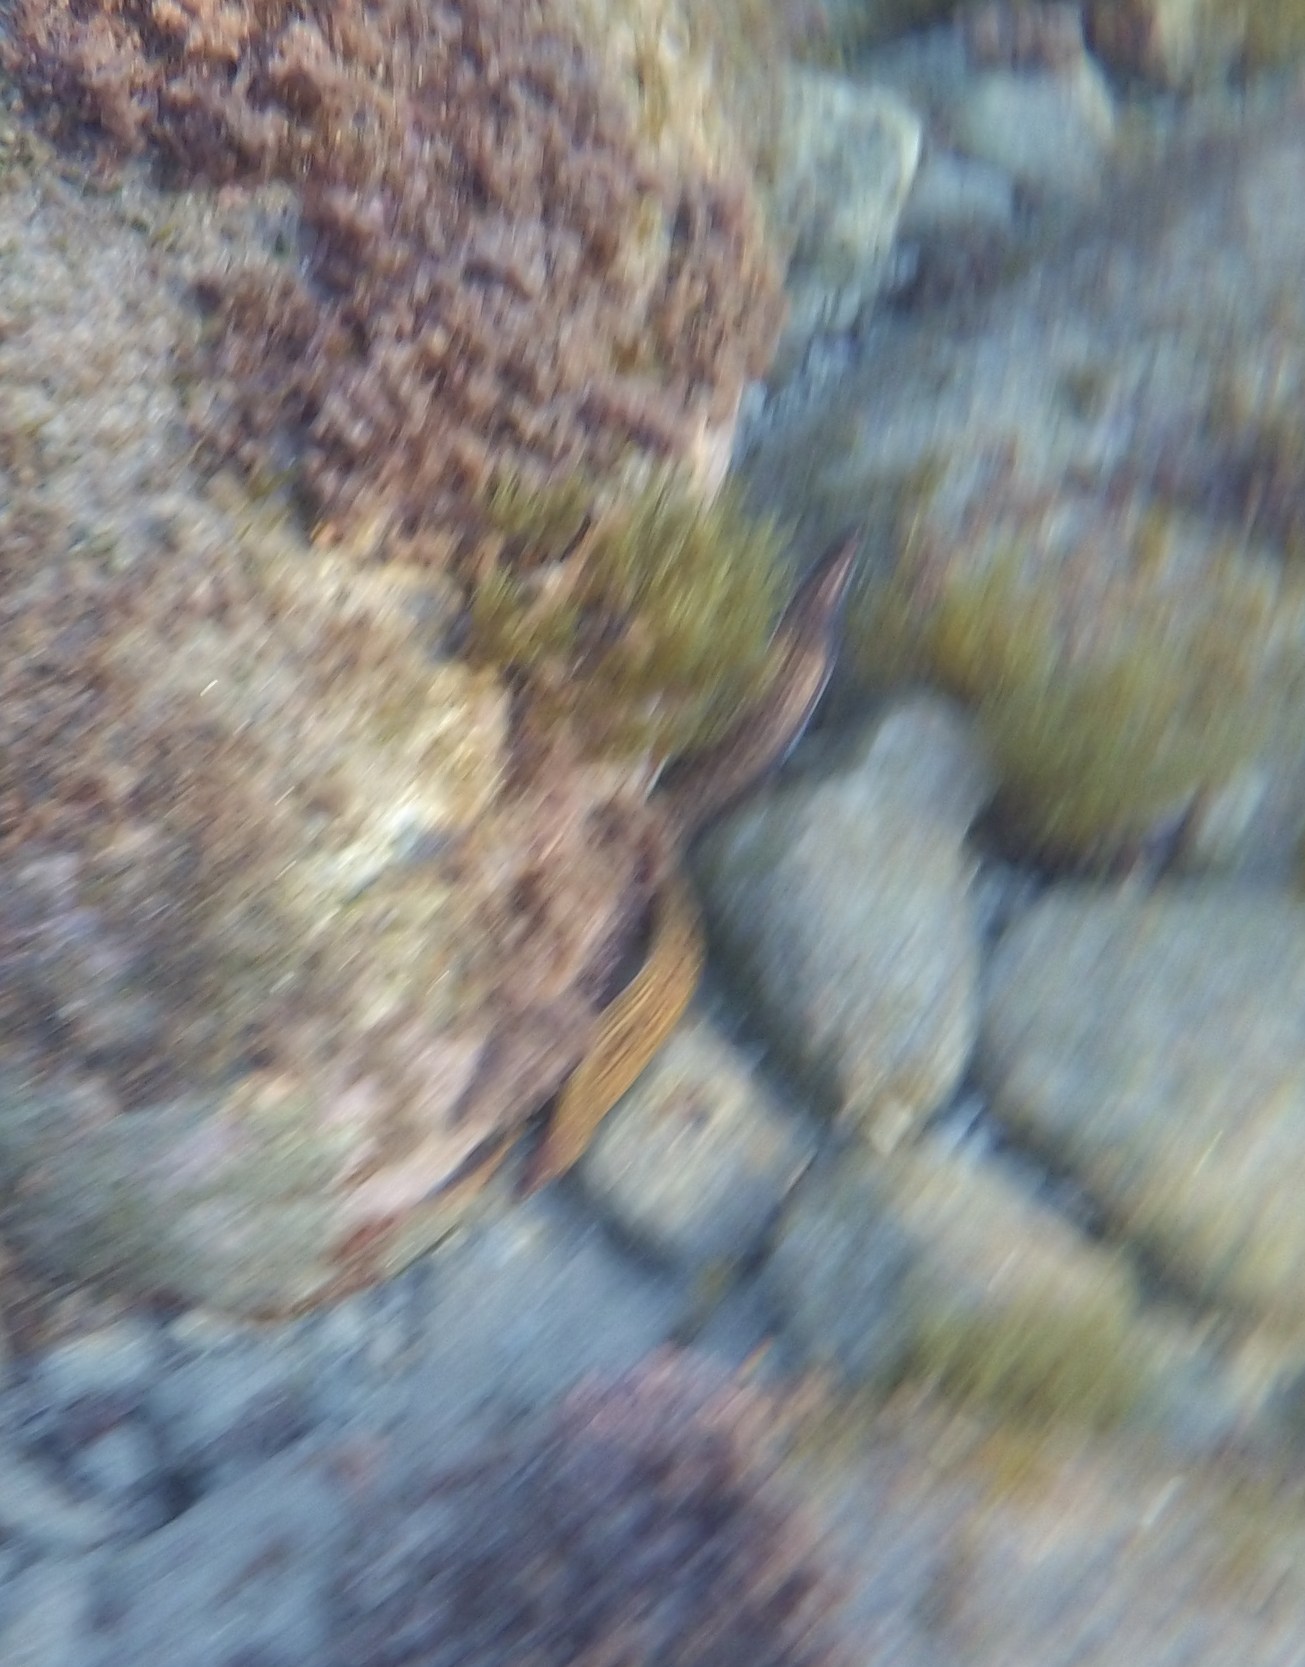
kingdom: Animalia
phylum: Chordata
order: Anguilliformes
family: Muraenidae
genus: Muraena
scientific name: Muraena helena
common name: Mediterranean moray
